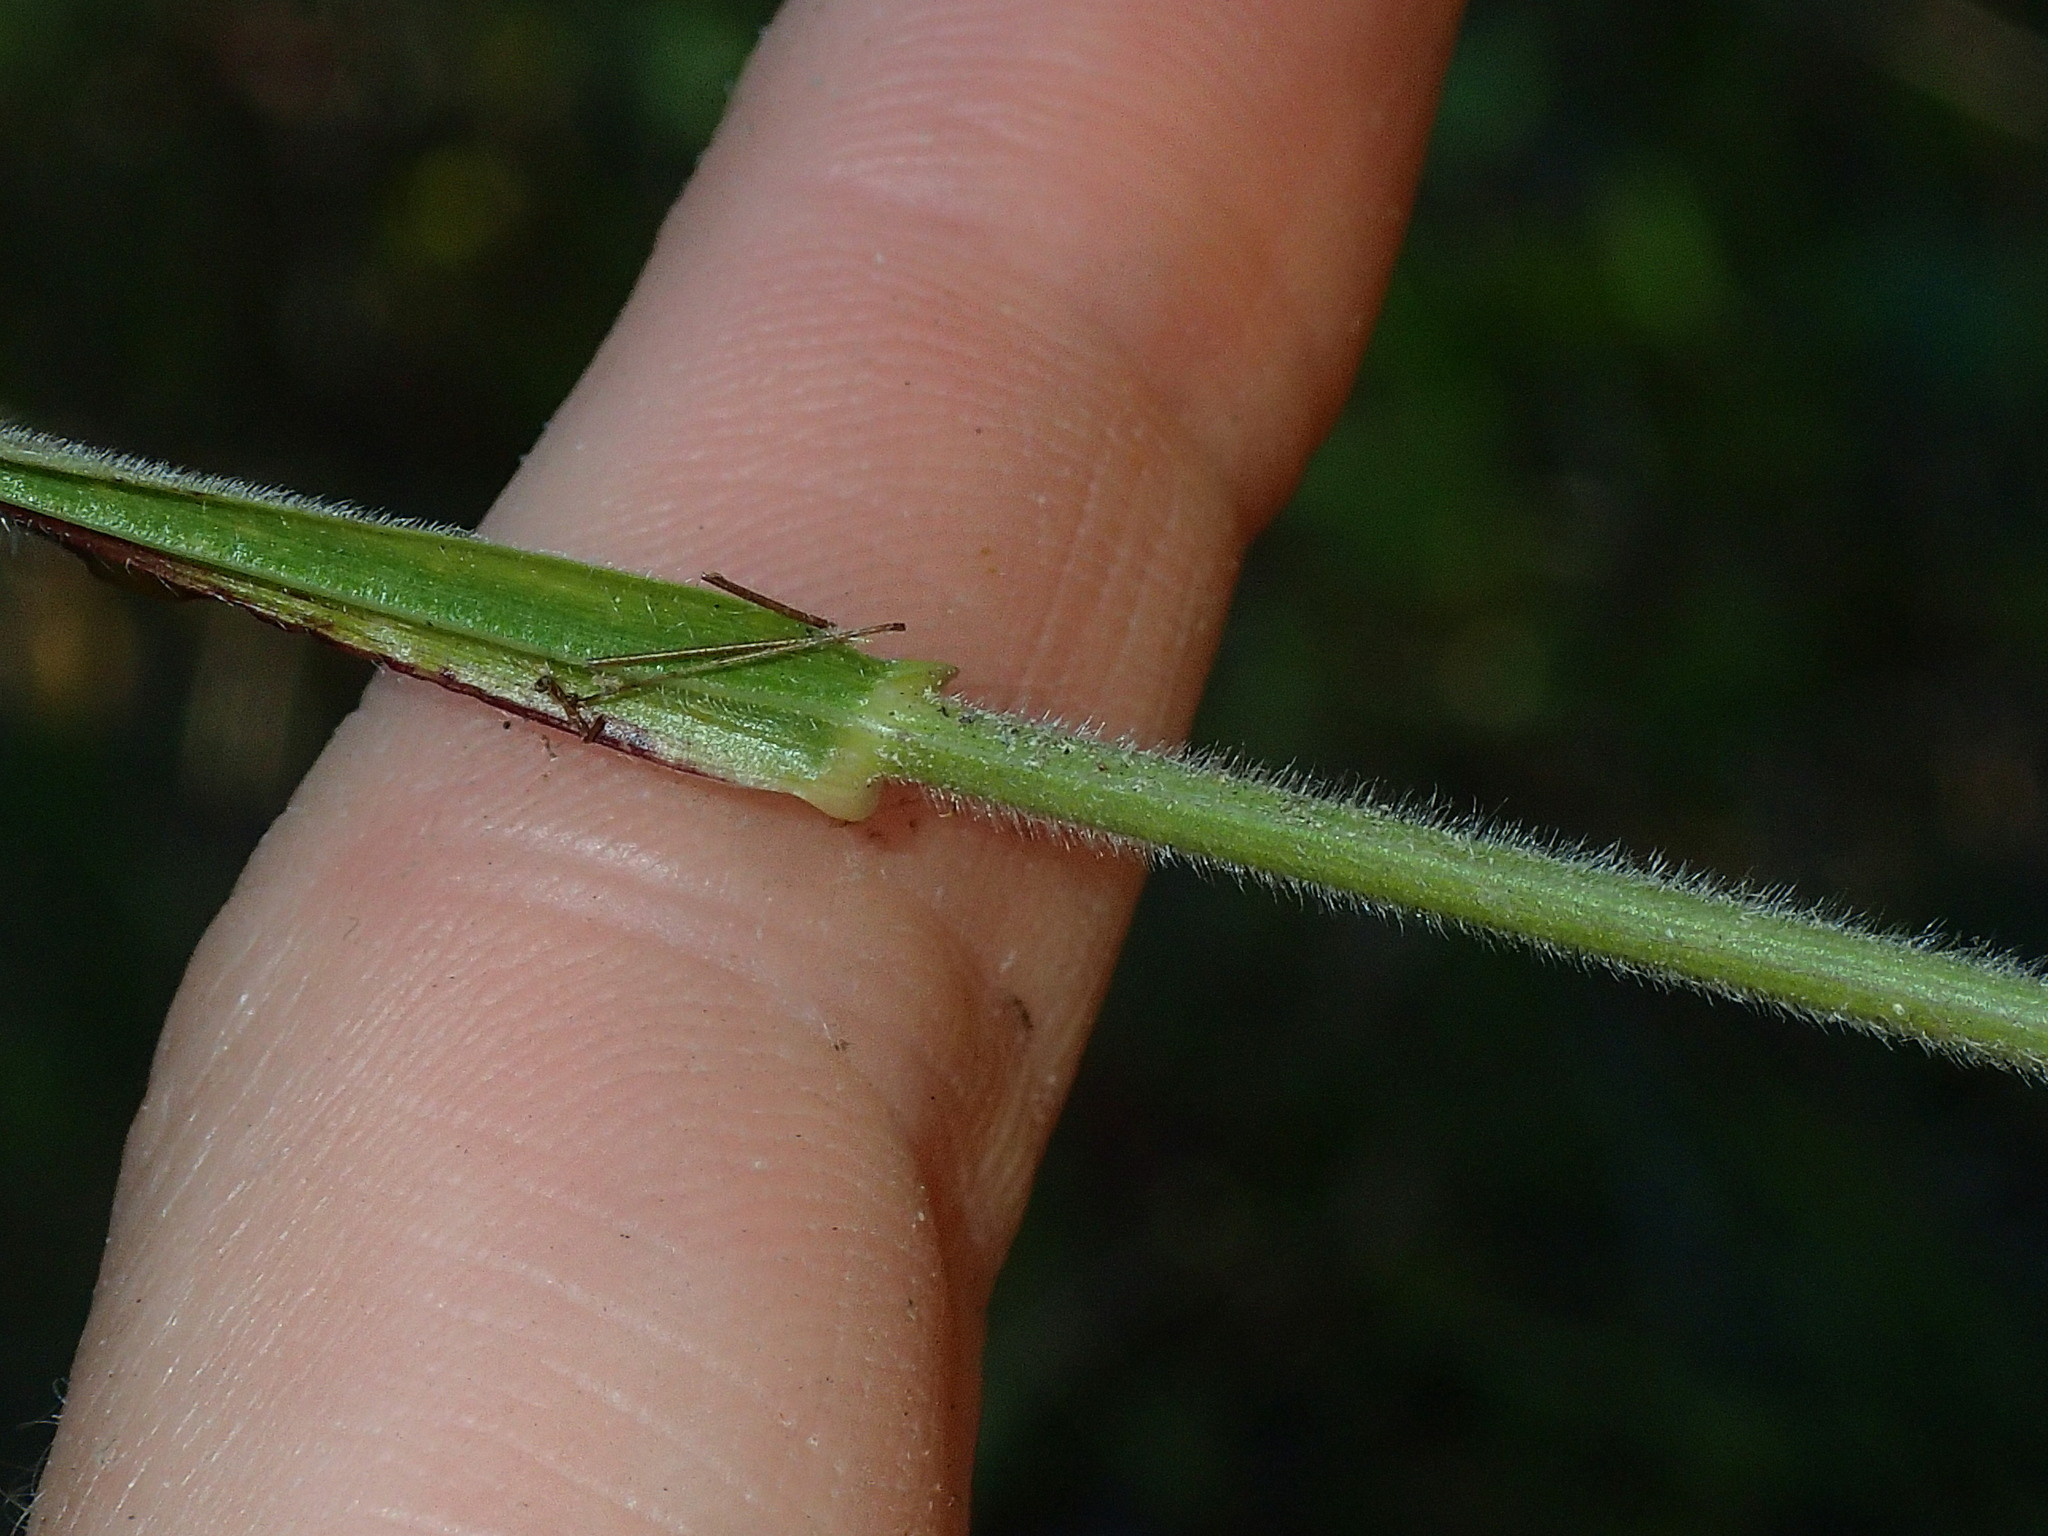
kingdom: Plantae
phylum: Tracheophyta
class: Liliopsida
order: Poales
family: Poaceae
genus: Elymus
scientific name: Elymus villosus
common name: Downy wild rye
